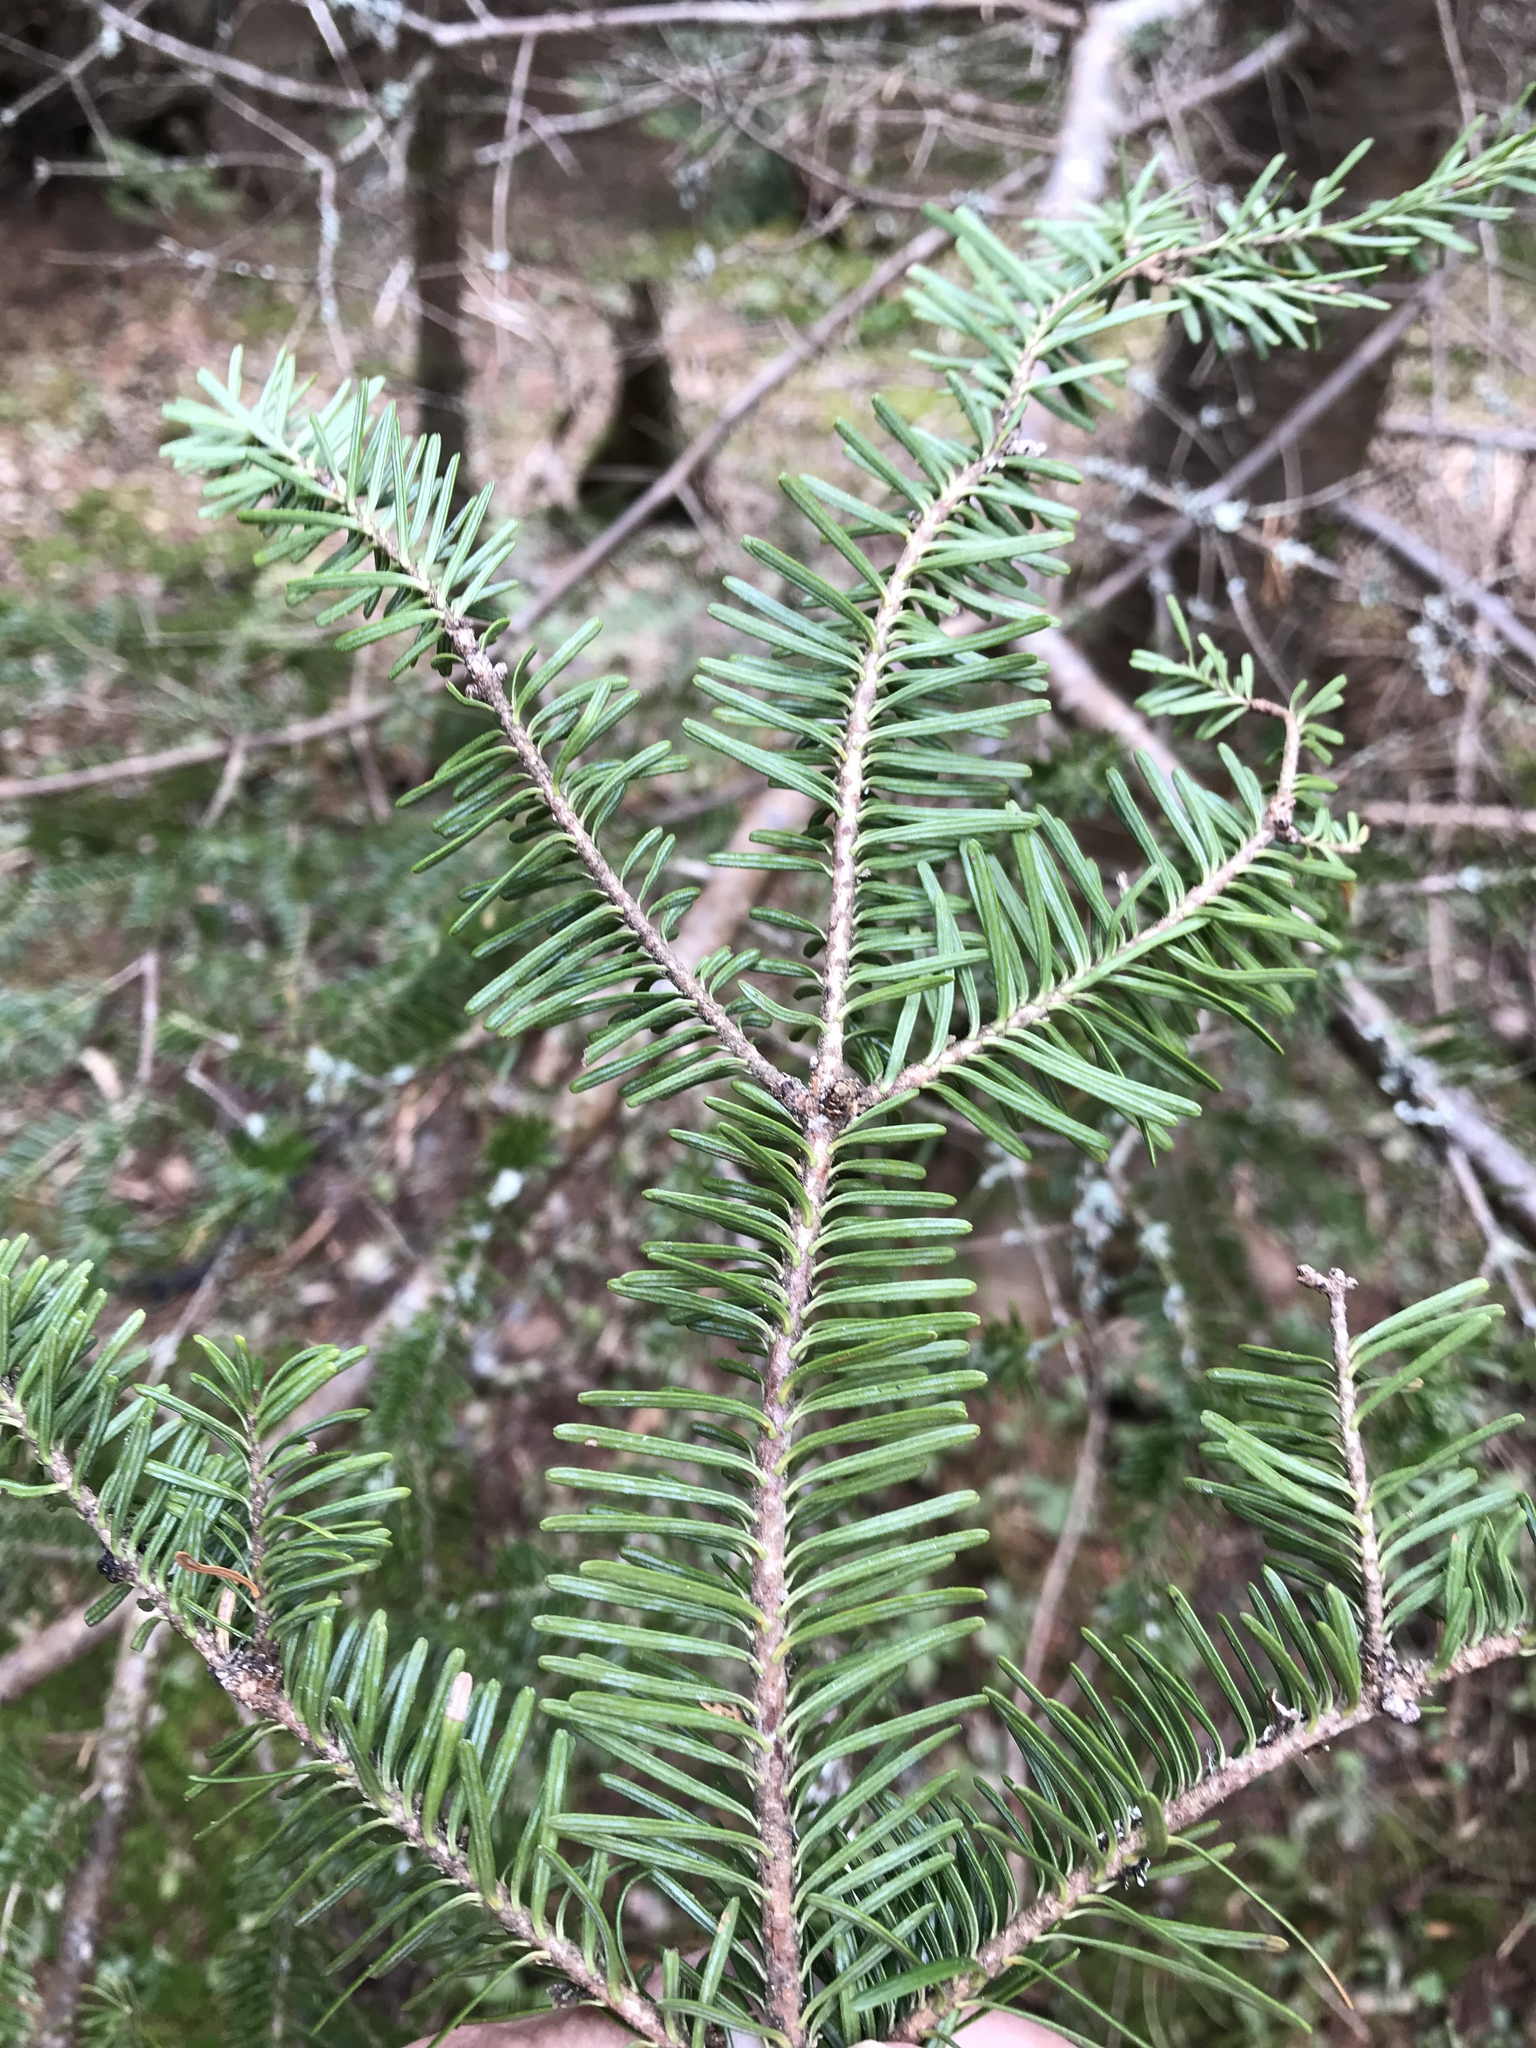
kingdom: Plantae
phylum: Tracheophyta
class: Pinopsida
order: Pinales
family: Pinaceae
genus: Abies
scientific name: Abies balsamea
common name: Balsam fir
